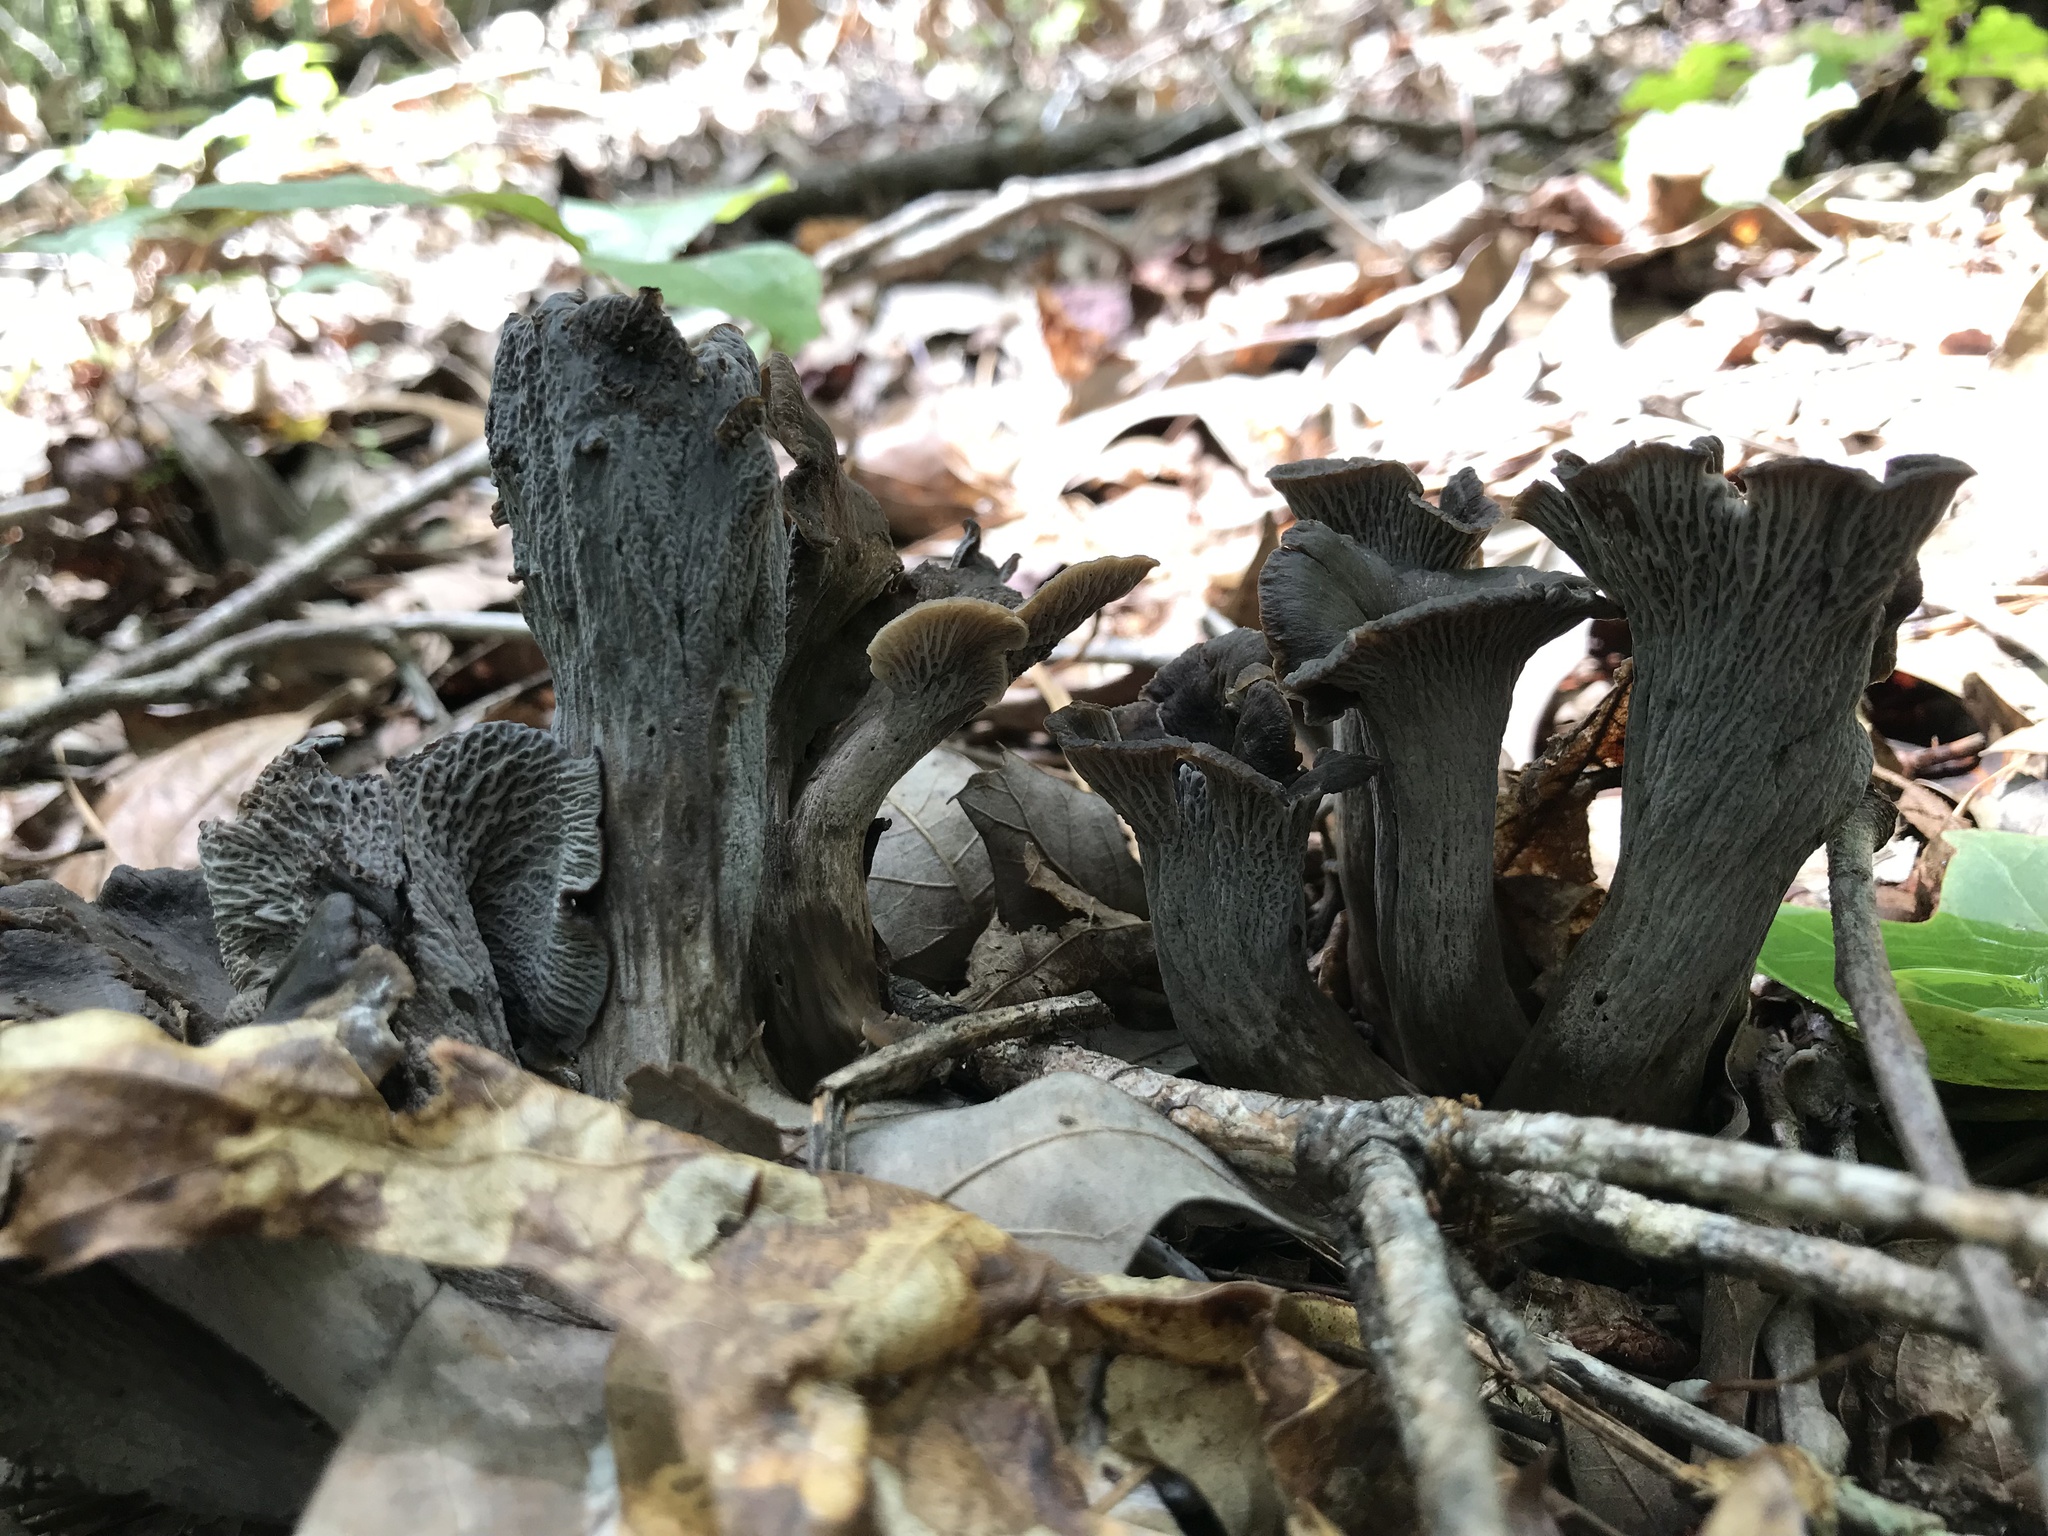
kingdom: Fungi
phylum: Basidiomycota
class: Agaricomycetes
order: Cantharellales
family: Hydnaceae
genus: Craterellus
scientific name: Craterellus foetidus
